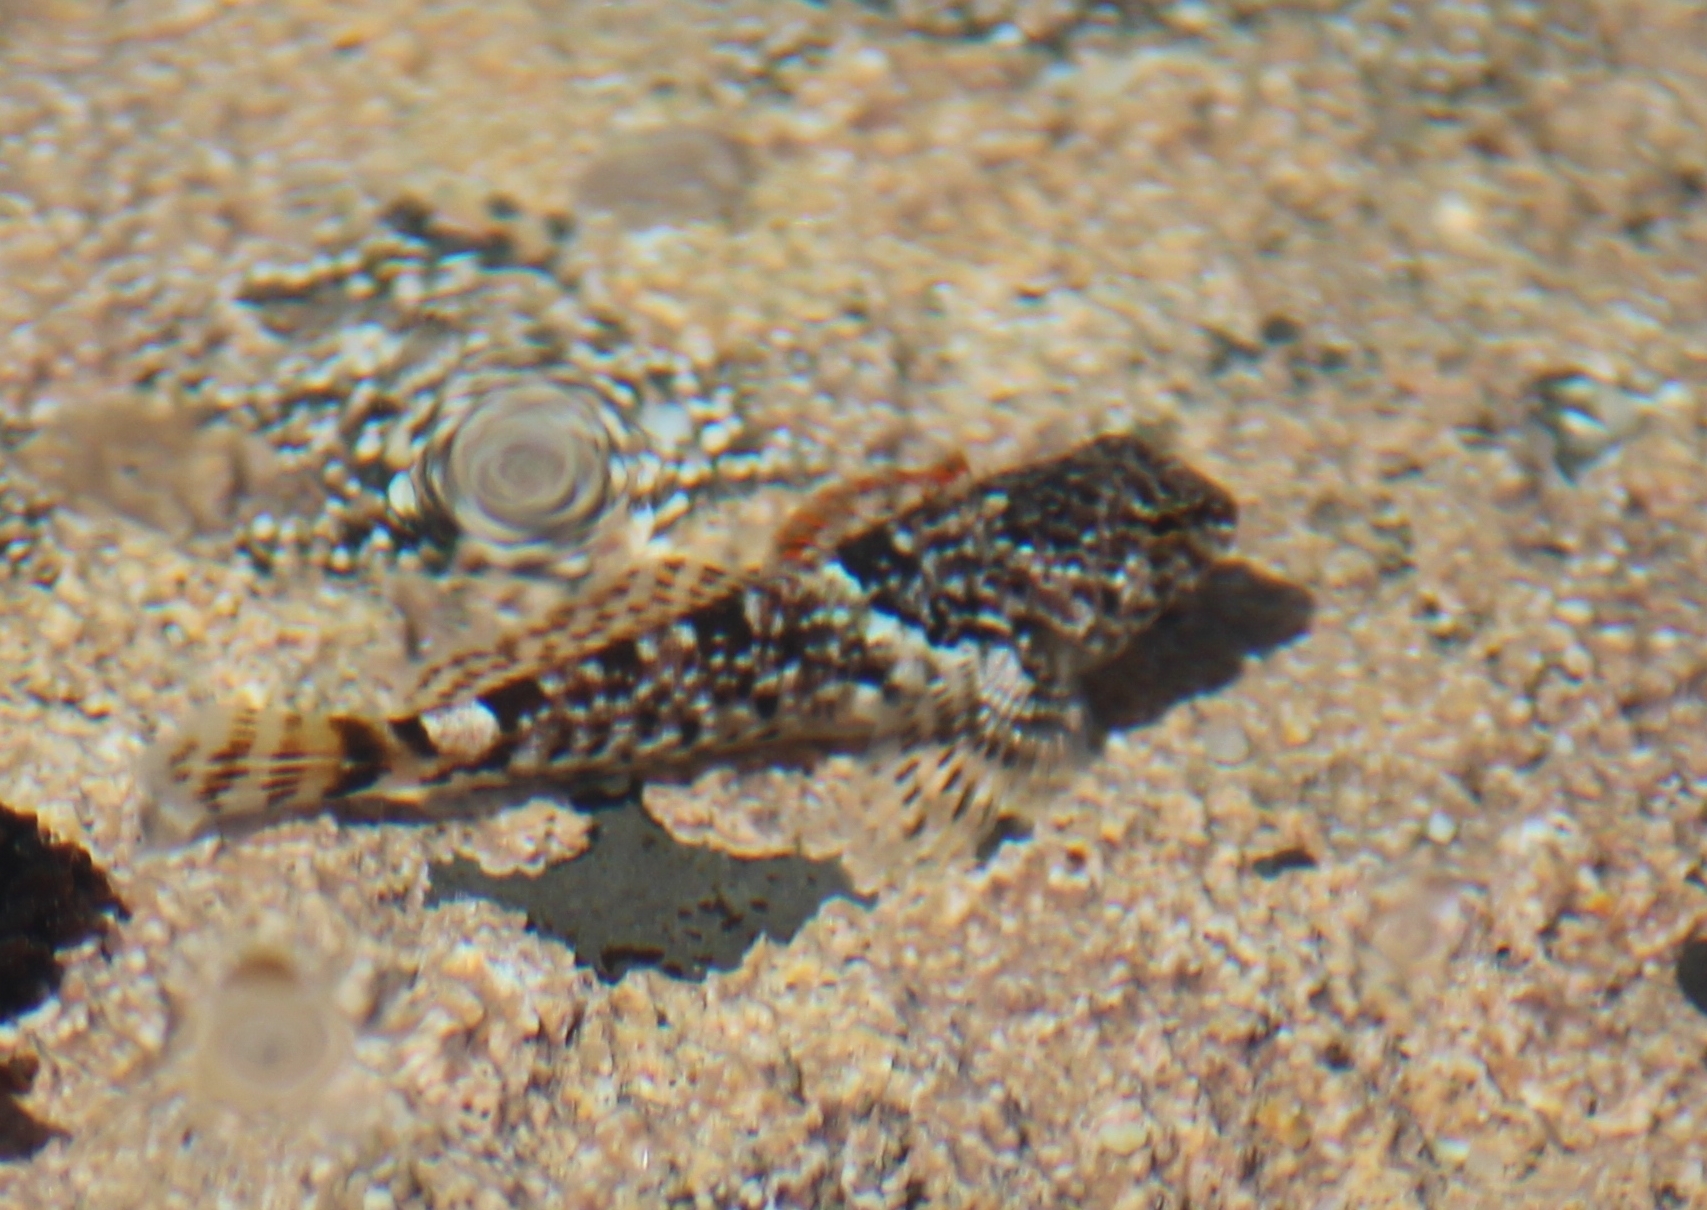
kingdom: Animalia
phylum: Chordata
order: Scorpaeniformes
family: Cottidae
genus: Clinocottus
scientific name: Clinocottus analis
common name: Woolly sculpin
